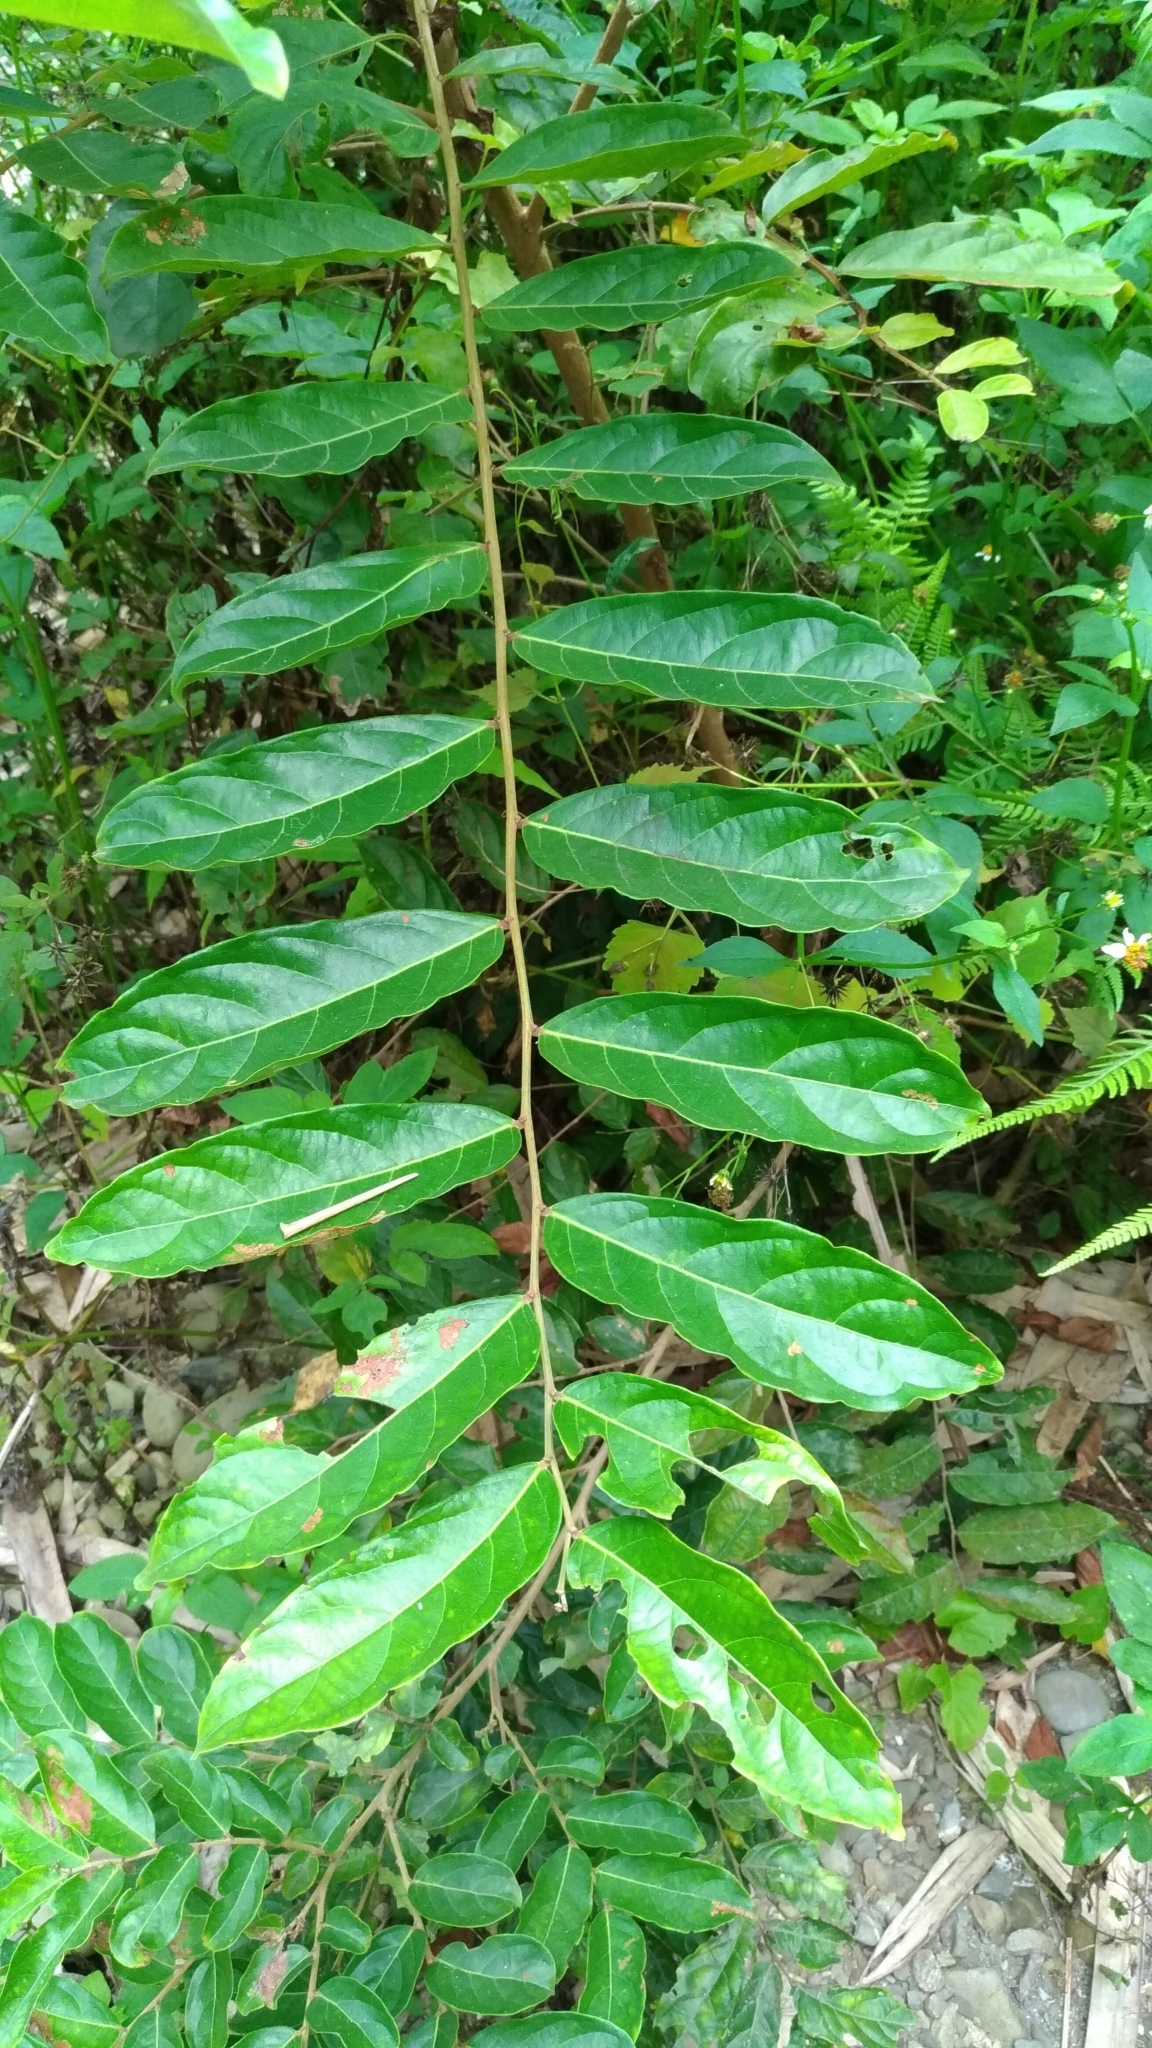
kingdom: Plantae
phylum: Tracheophyta
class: Magnoliopsida
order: Malpighiales
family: Phyllanthaceae
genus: Glochidion
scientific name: Glochidion philippicum
